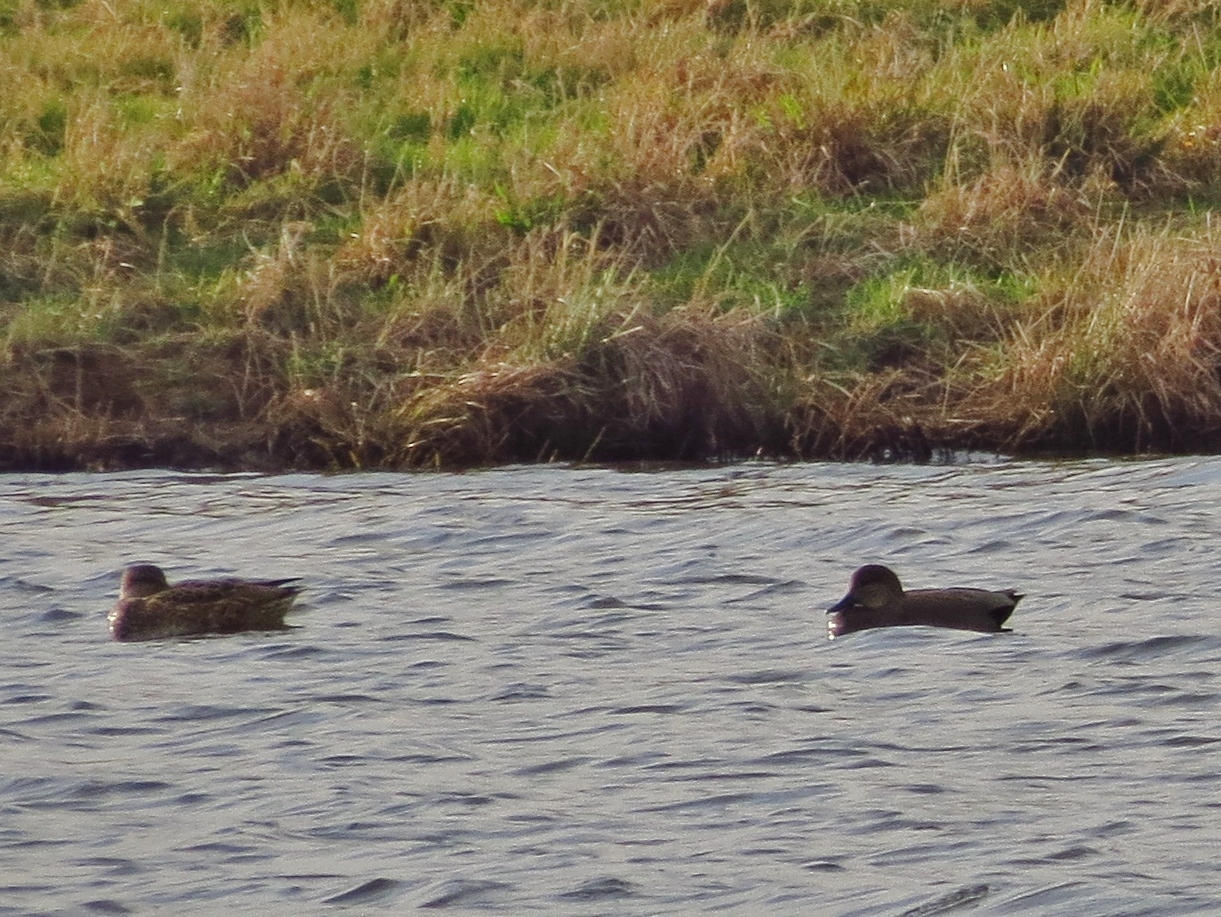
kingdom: Animalia
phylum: Chordata
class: Aves
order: Anseriformes
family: Anatidae
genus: Mareca
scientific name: Mareca strepera
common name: Gadwall
